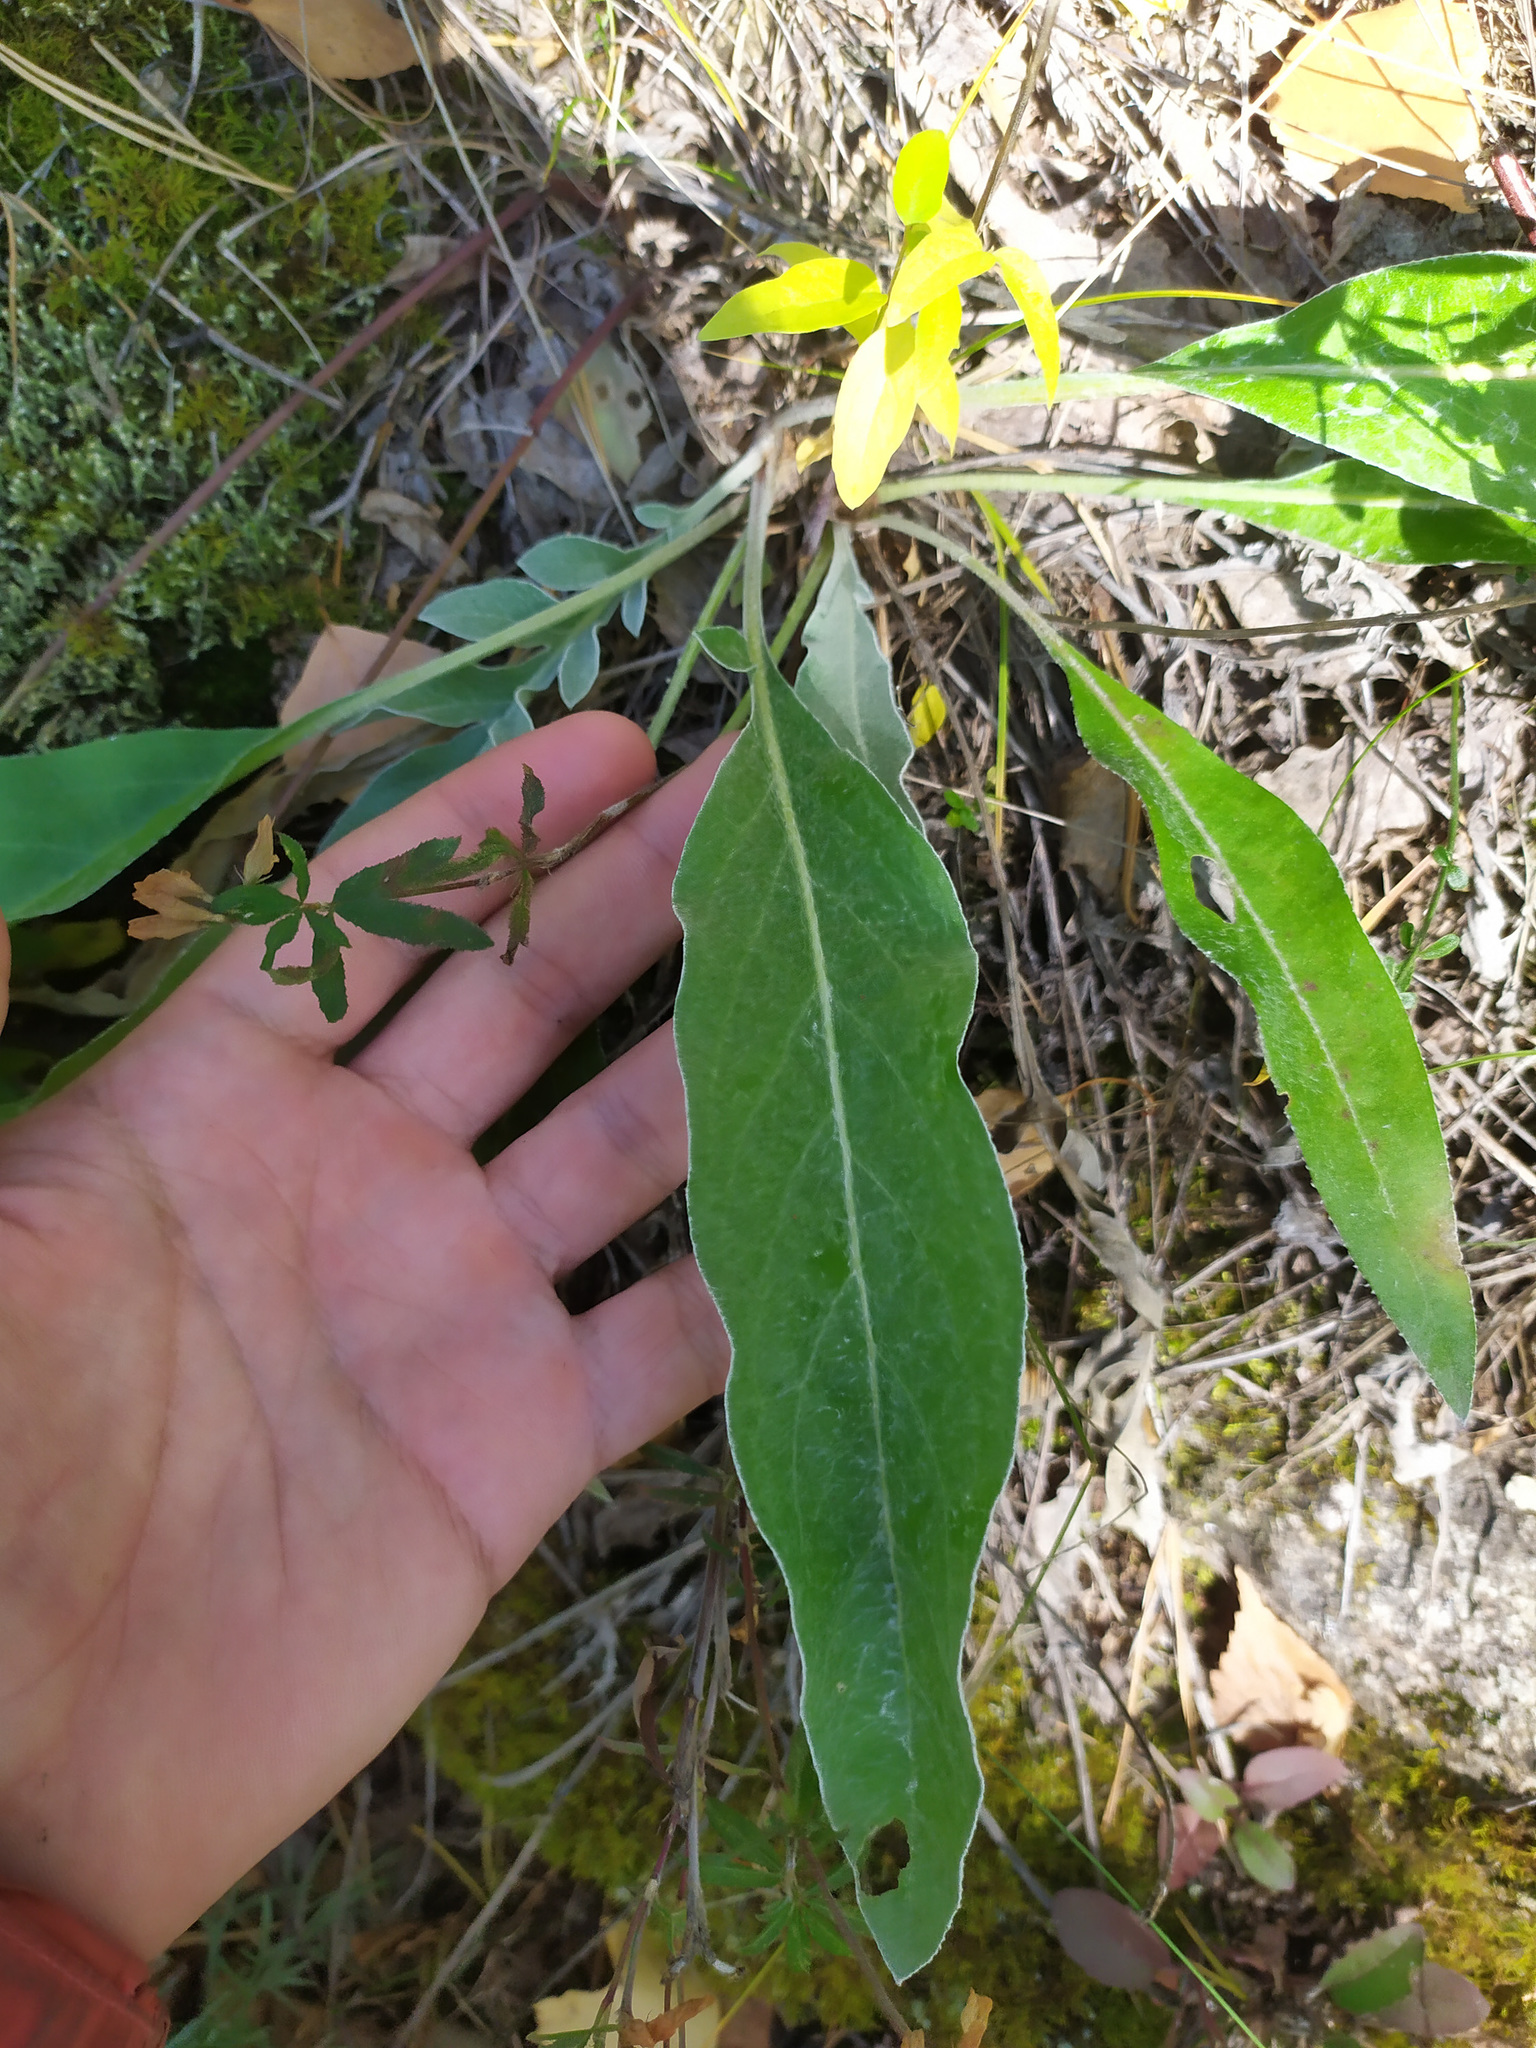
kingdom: Plantae
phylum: Tracheophyta
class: Magnoliopsida
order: Asterales
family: Asteraceae
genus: Psephellus
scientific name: Psephellus sibiricus
